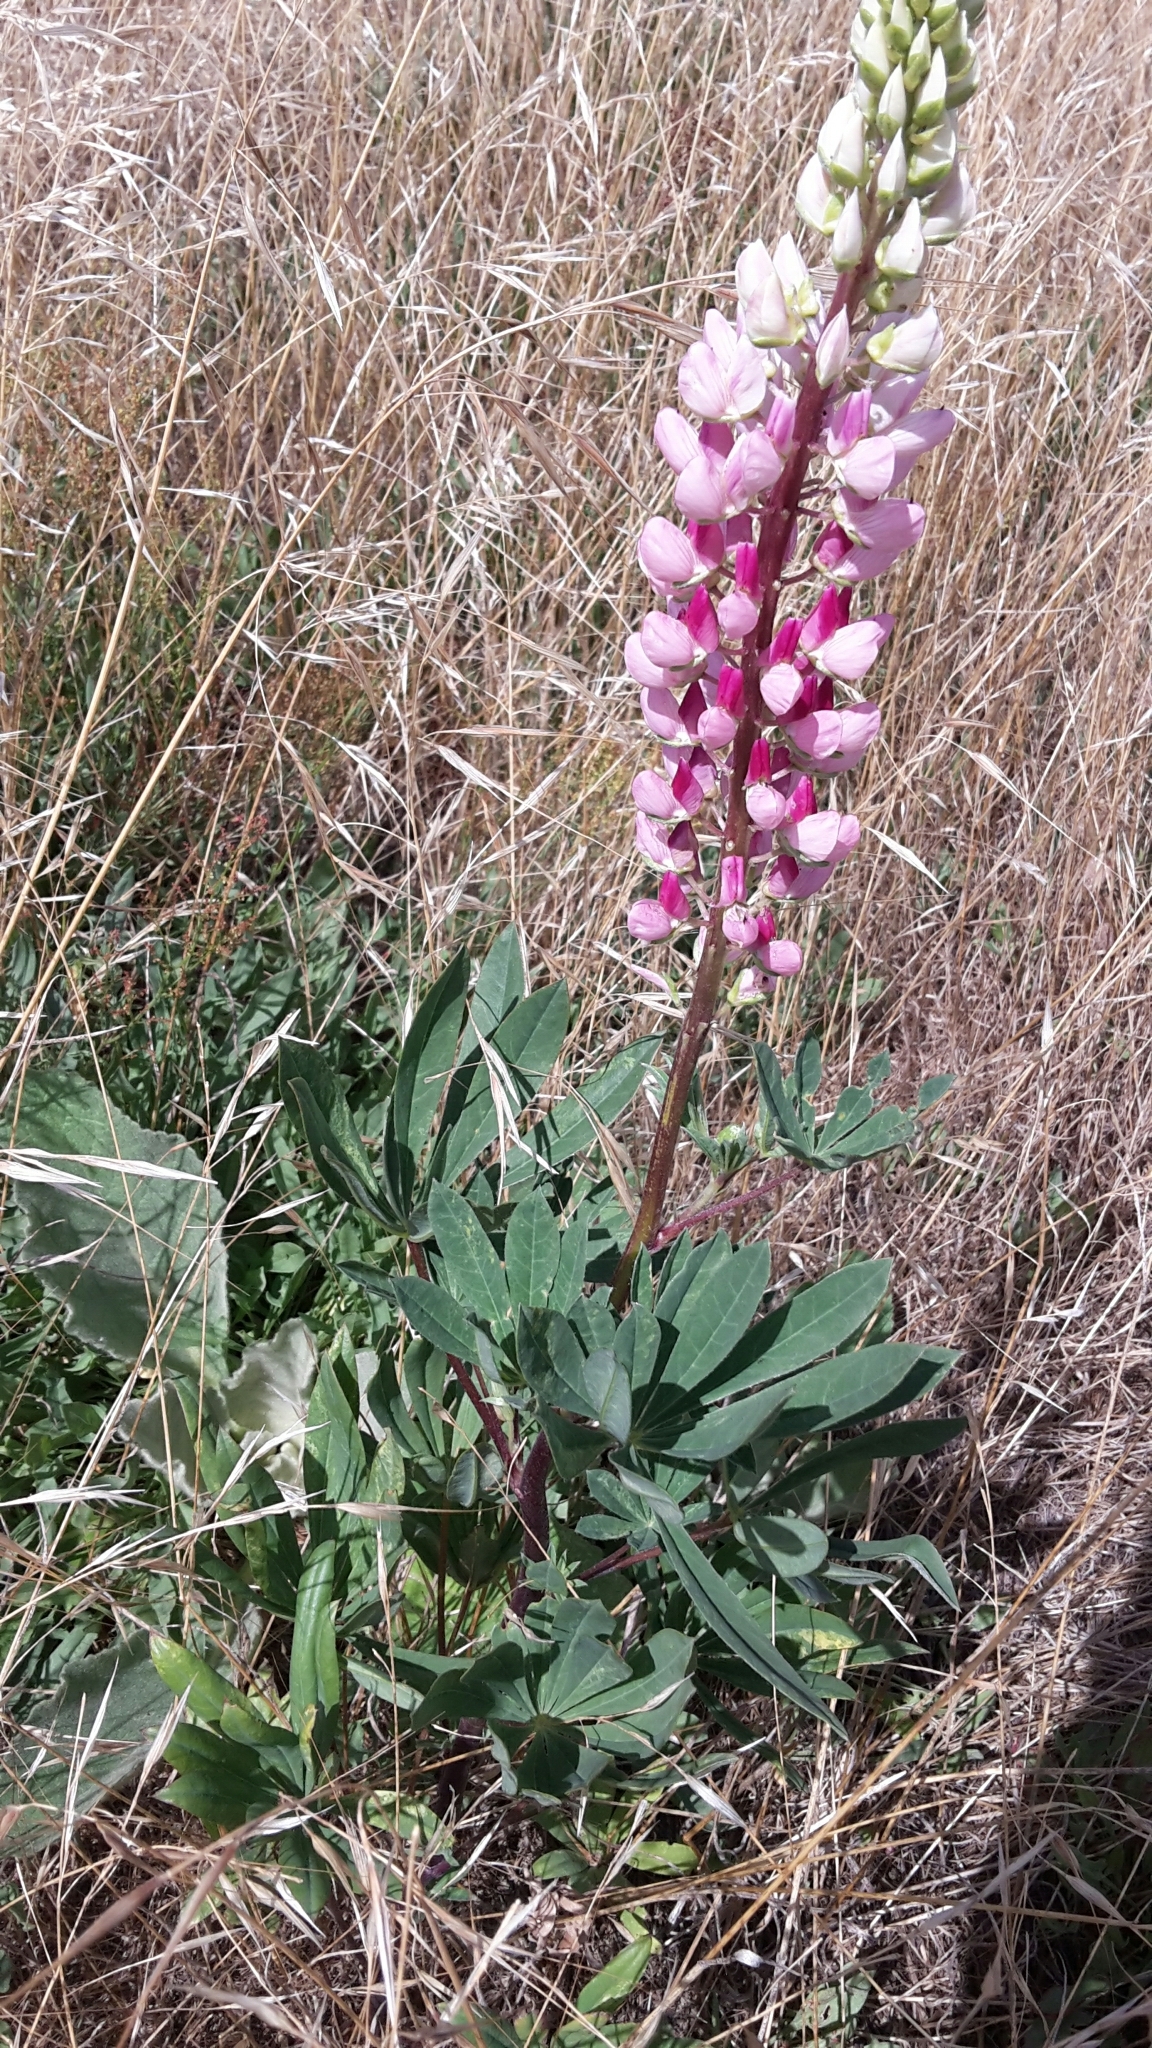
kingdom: Plantae
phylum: Tracheophyta
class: Magnoliopsida
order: Fabales
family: Fabaceae
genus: Lupinus
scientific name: Lupinus polyphyllus
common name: Garden lupin
